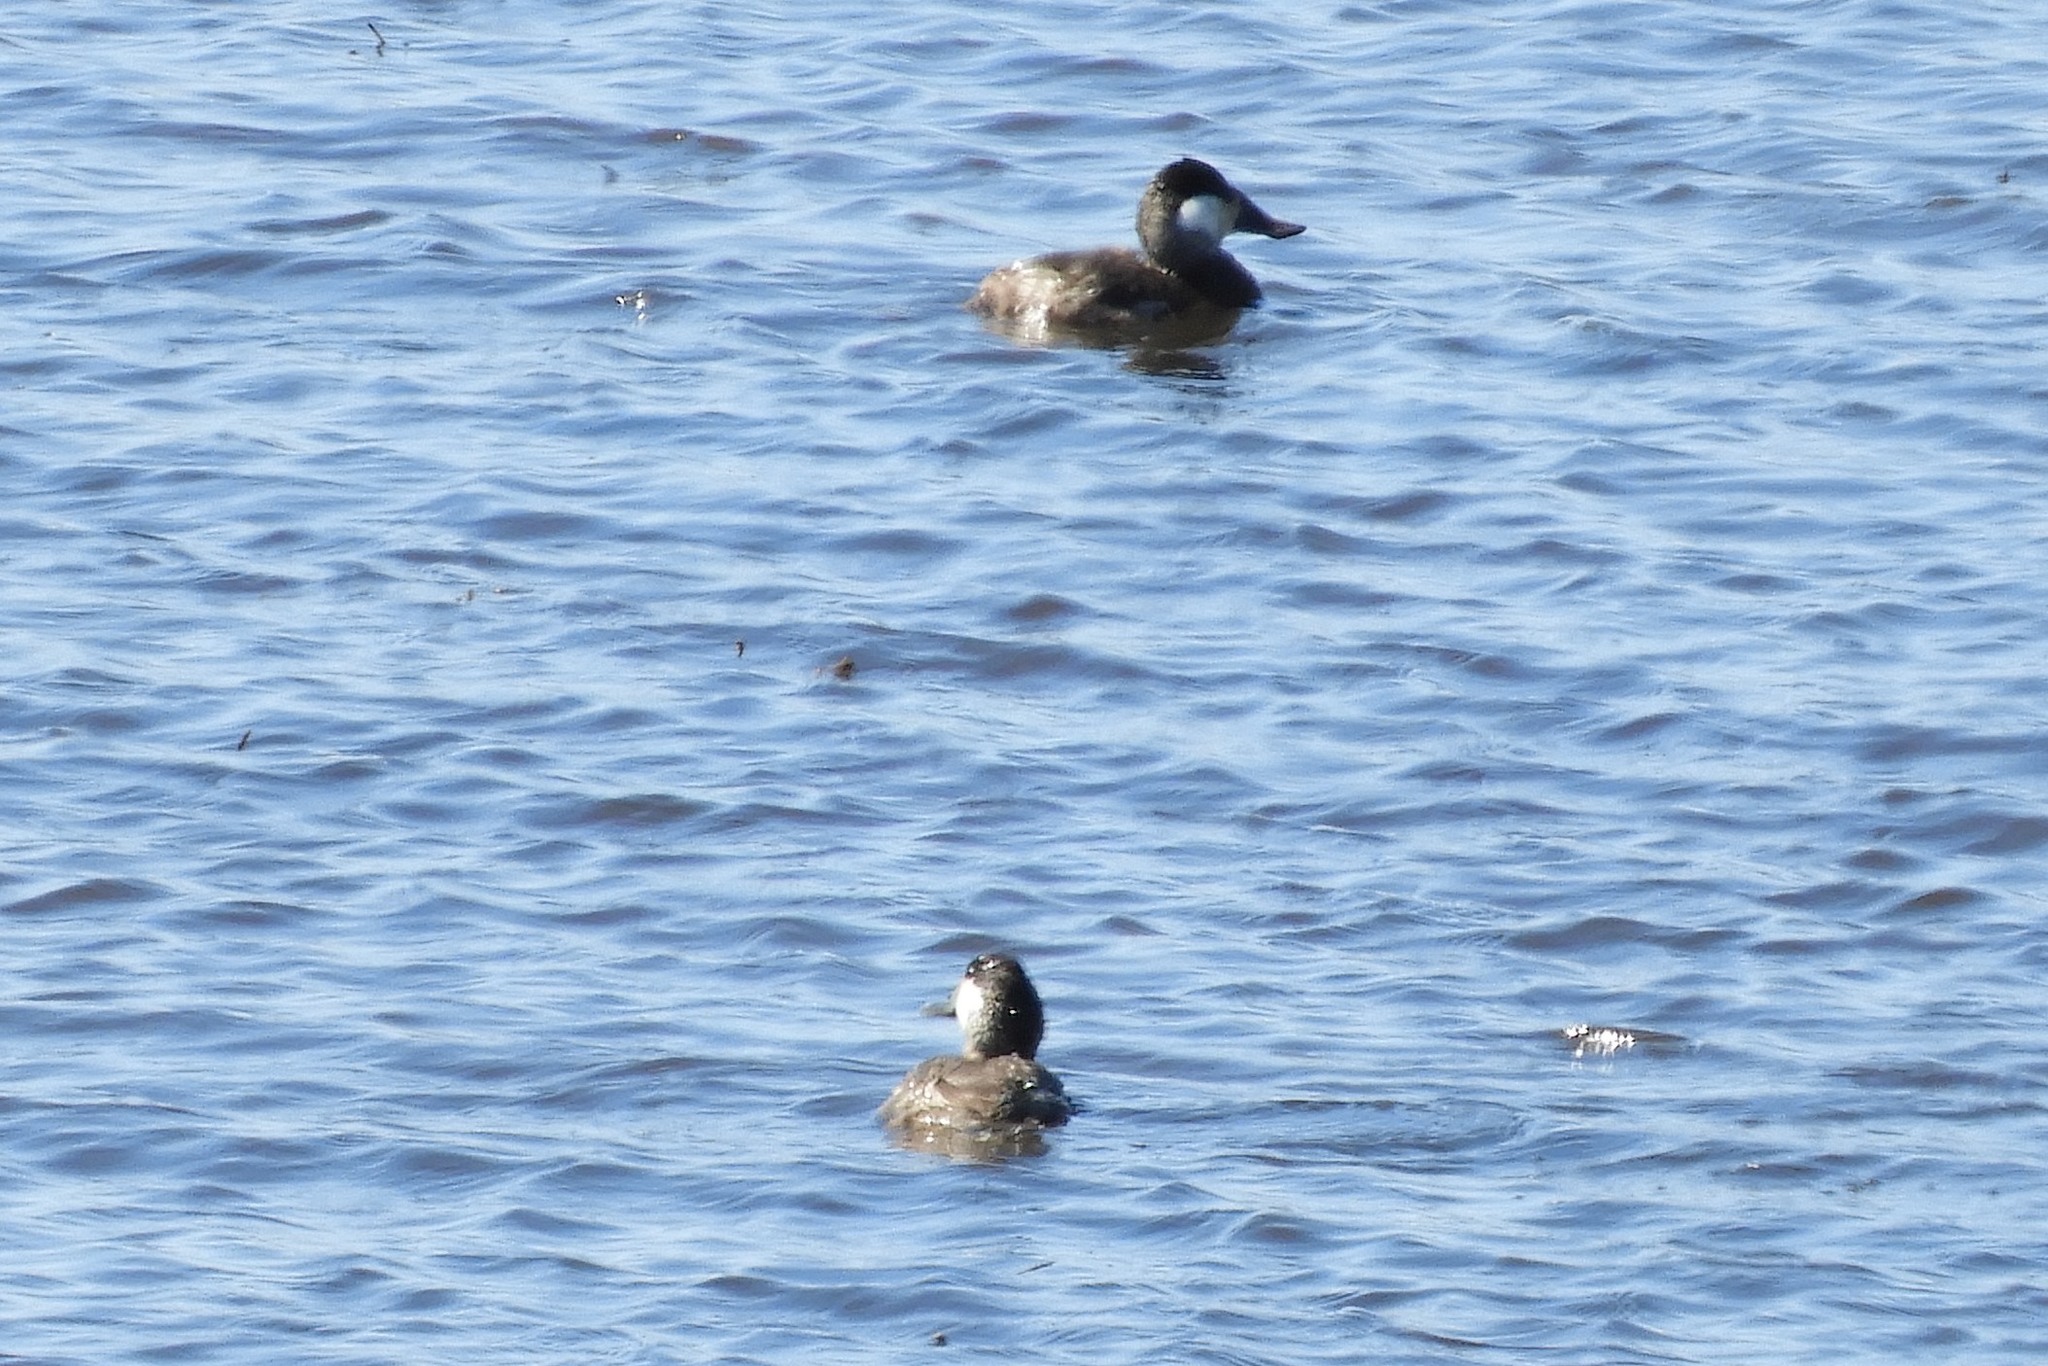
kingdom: Animalia
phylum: Chordata
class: Aves
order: Anseriformes
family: Anatidae
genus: Oxyura
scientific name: Oxyura jamaicensis
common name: Ruddy duck
